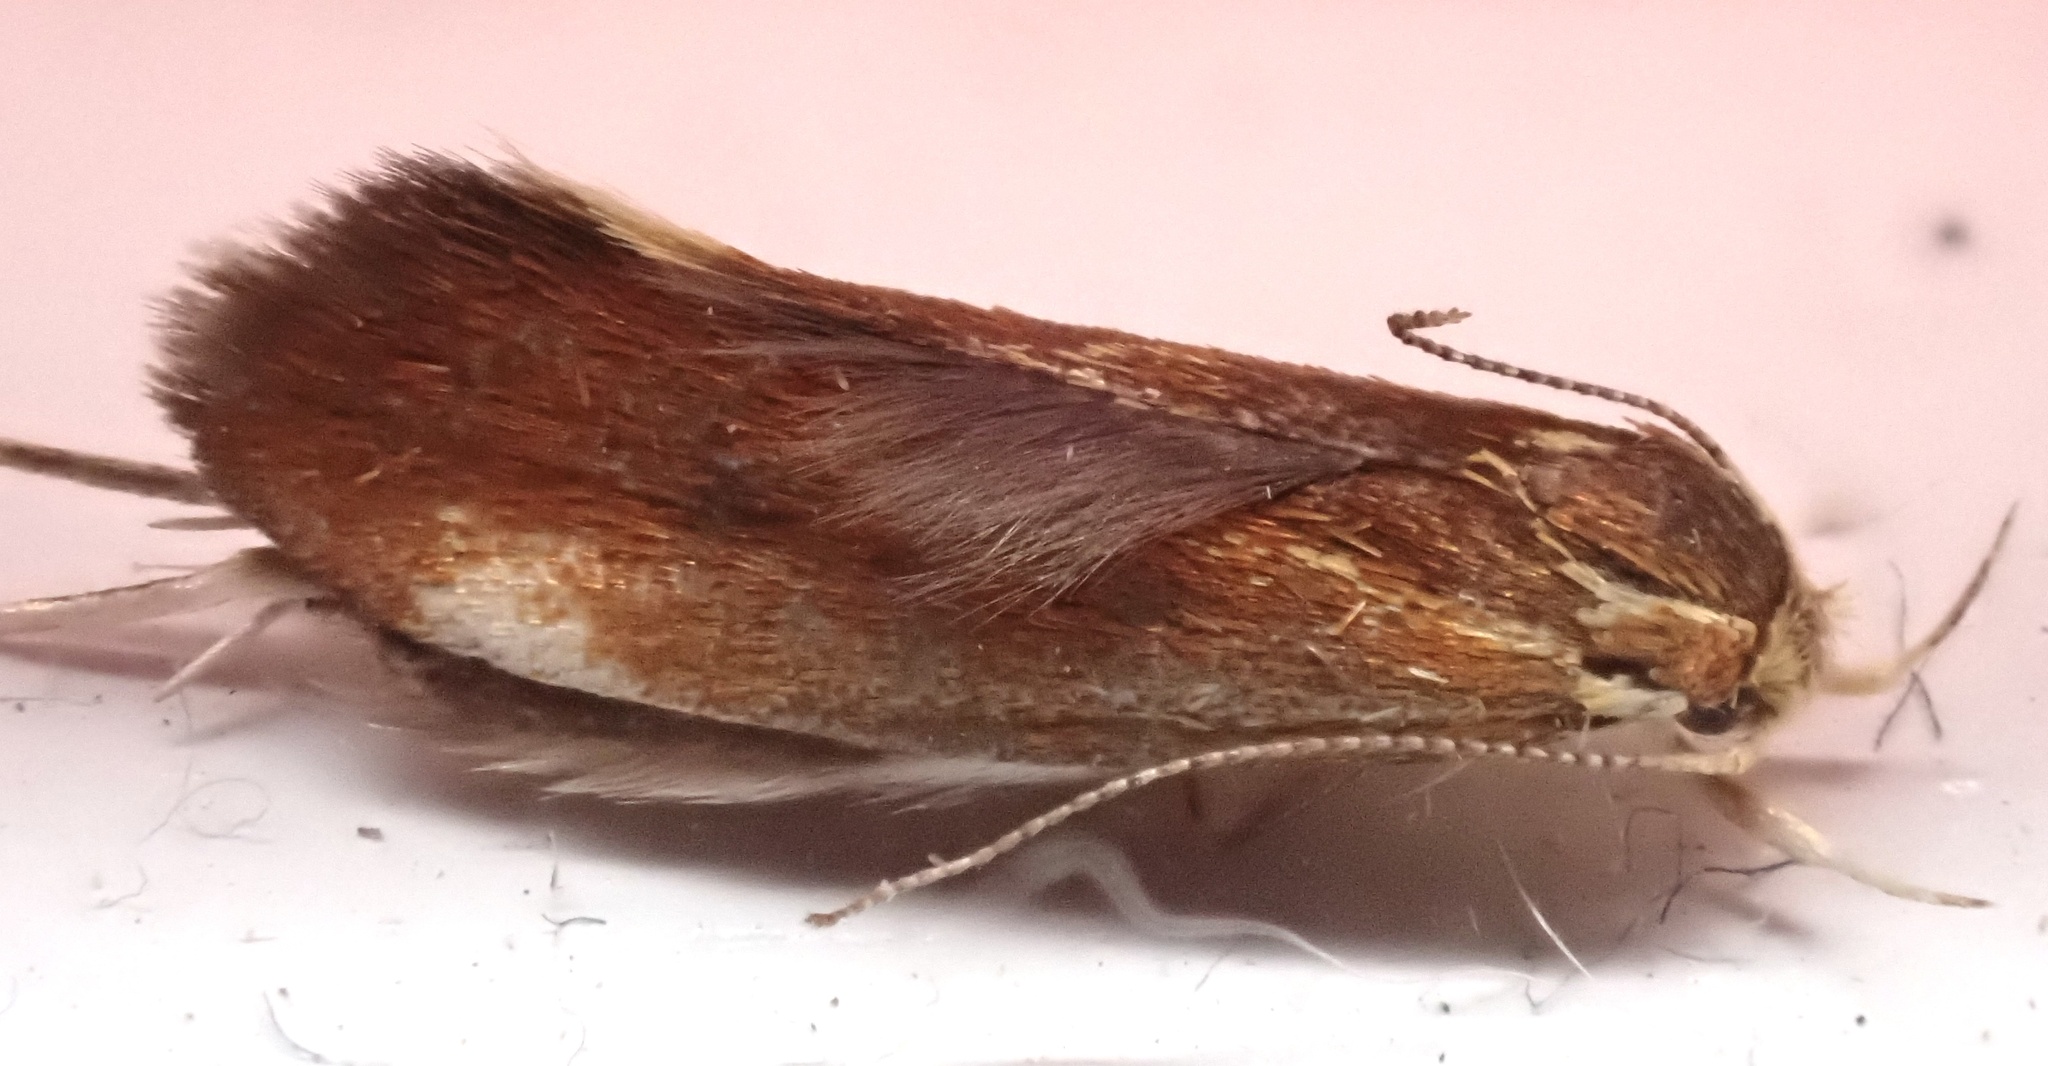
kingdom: Animalia
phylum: Arthropoda
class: Insecta
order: Lepidoptera
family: Oecophoridae
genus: Borkhausenia
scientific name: Borkhausenia italica
